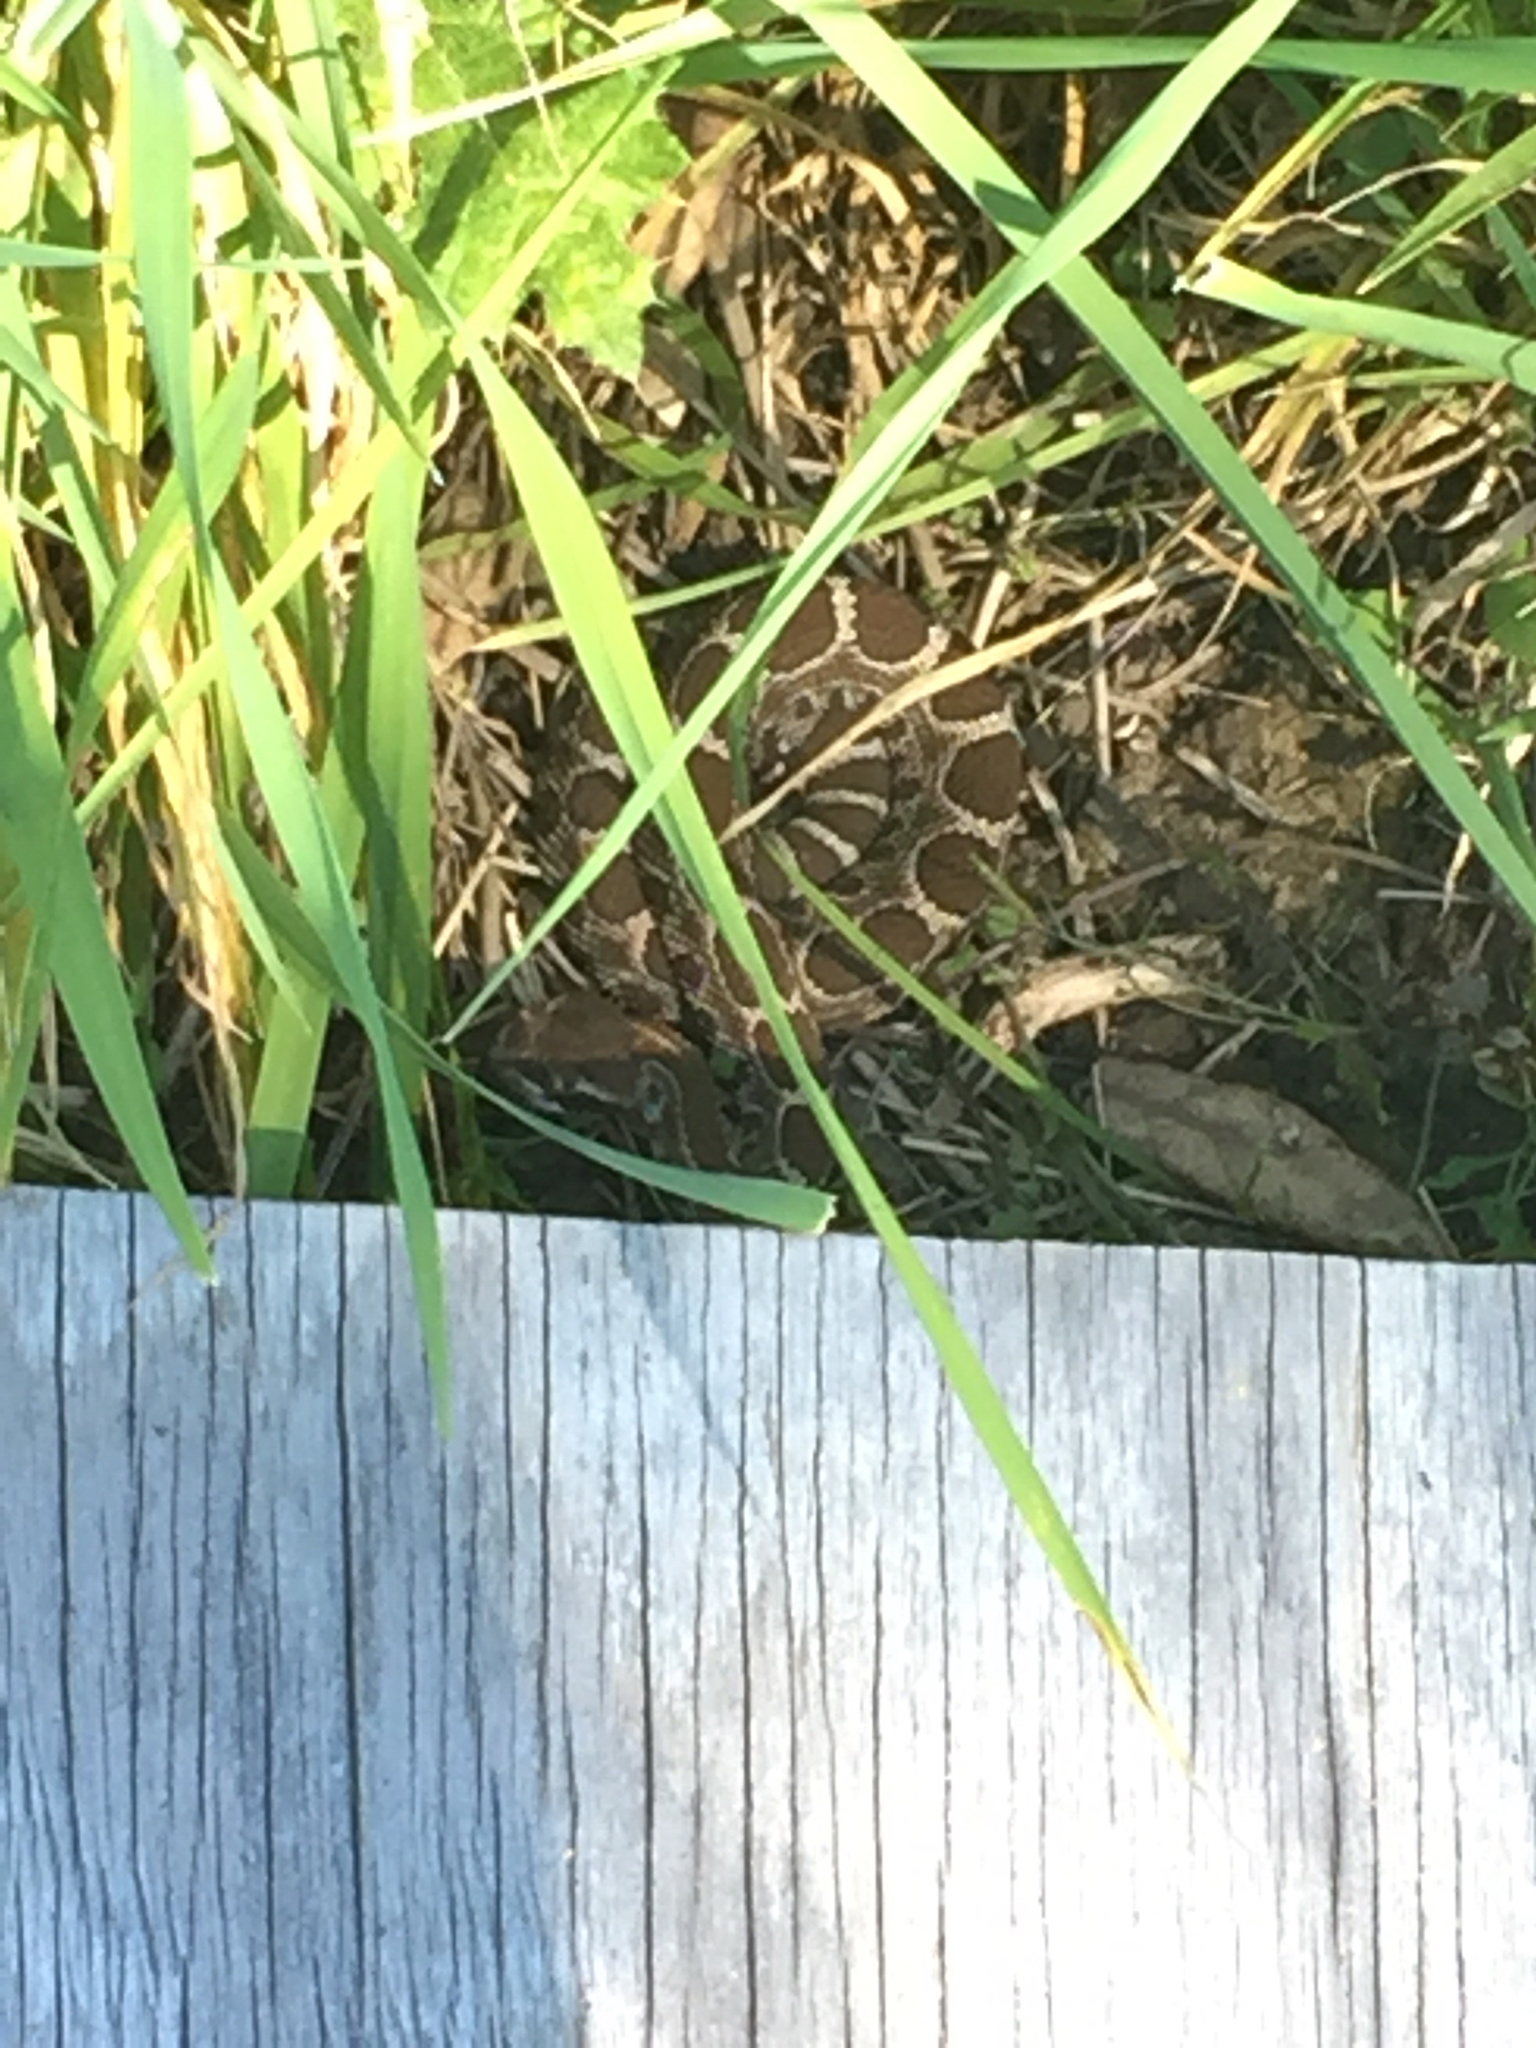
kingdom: Animalia
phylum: Chordata
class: Squamata
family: Viperidae
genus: Crotalus
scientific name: Crotalus oreganus
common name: Abyssus
